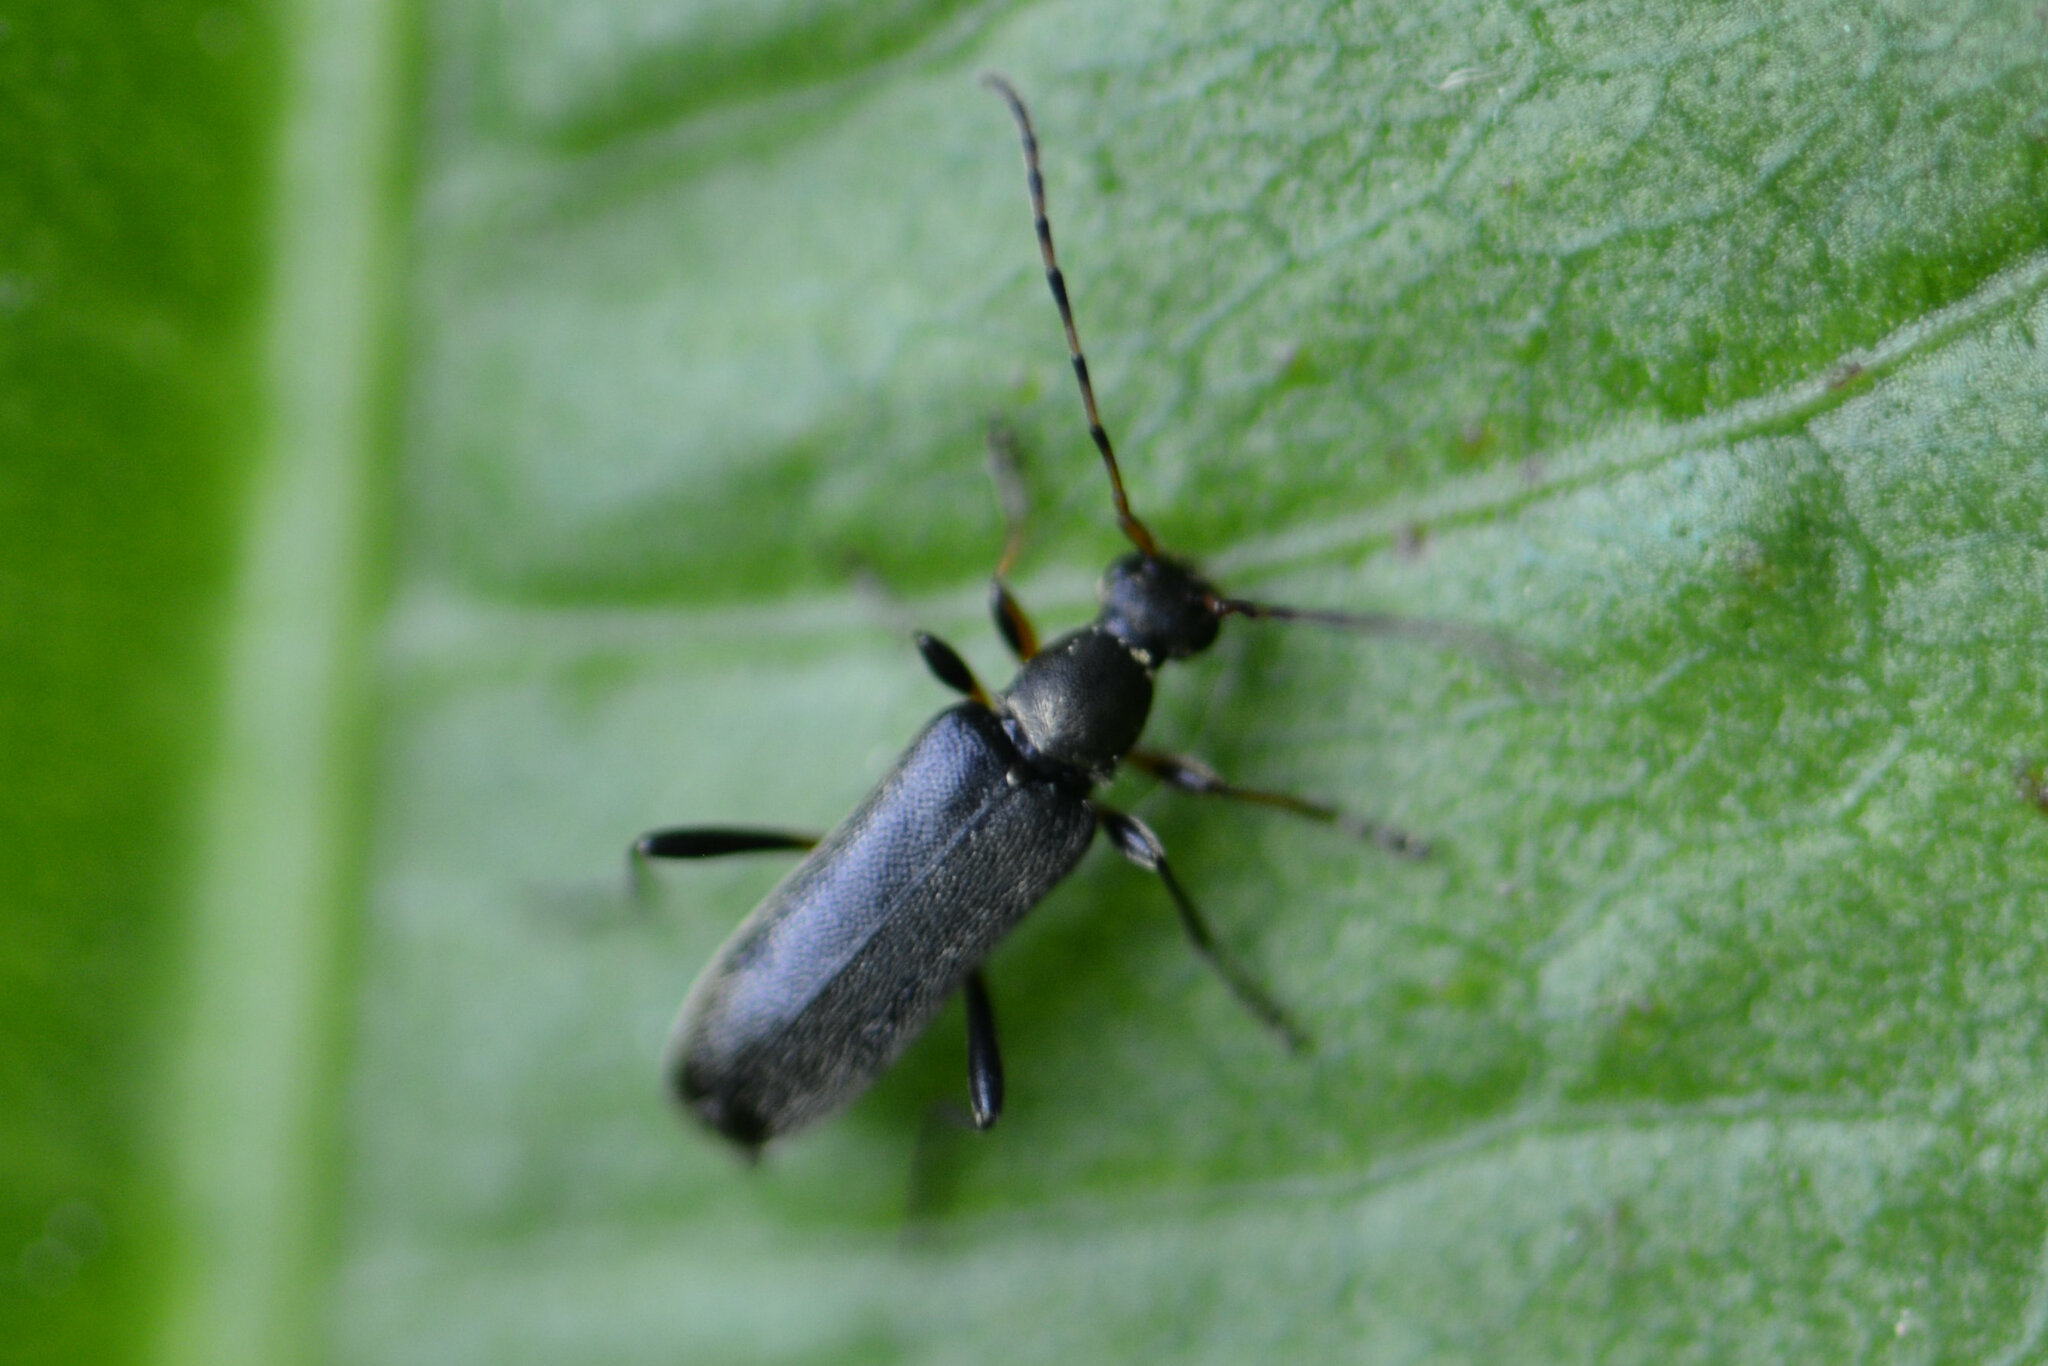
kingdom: Animalia
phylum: Arthropoda
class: Insecta
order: Coleoptera
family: Cerambycidae
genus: Grammoptera
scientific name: Grammoptera ruficornis
